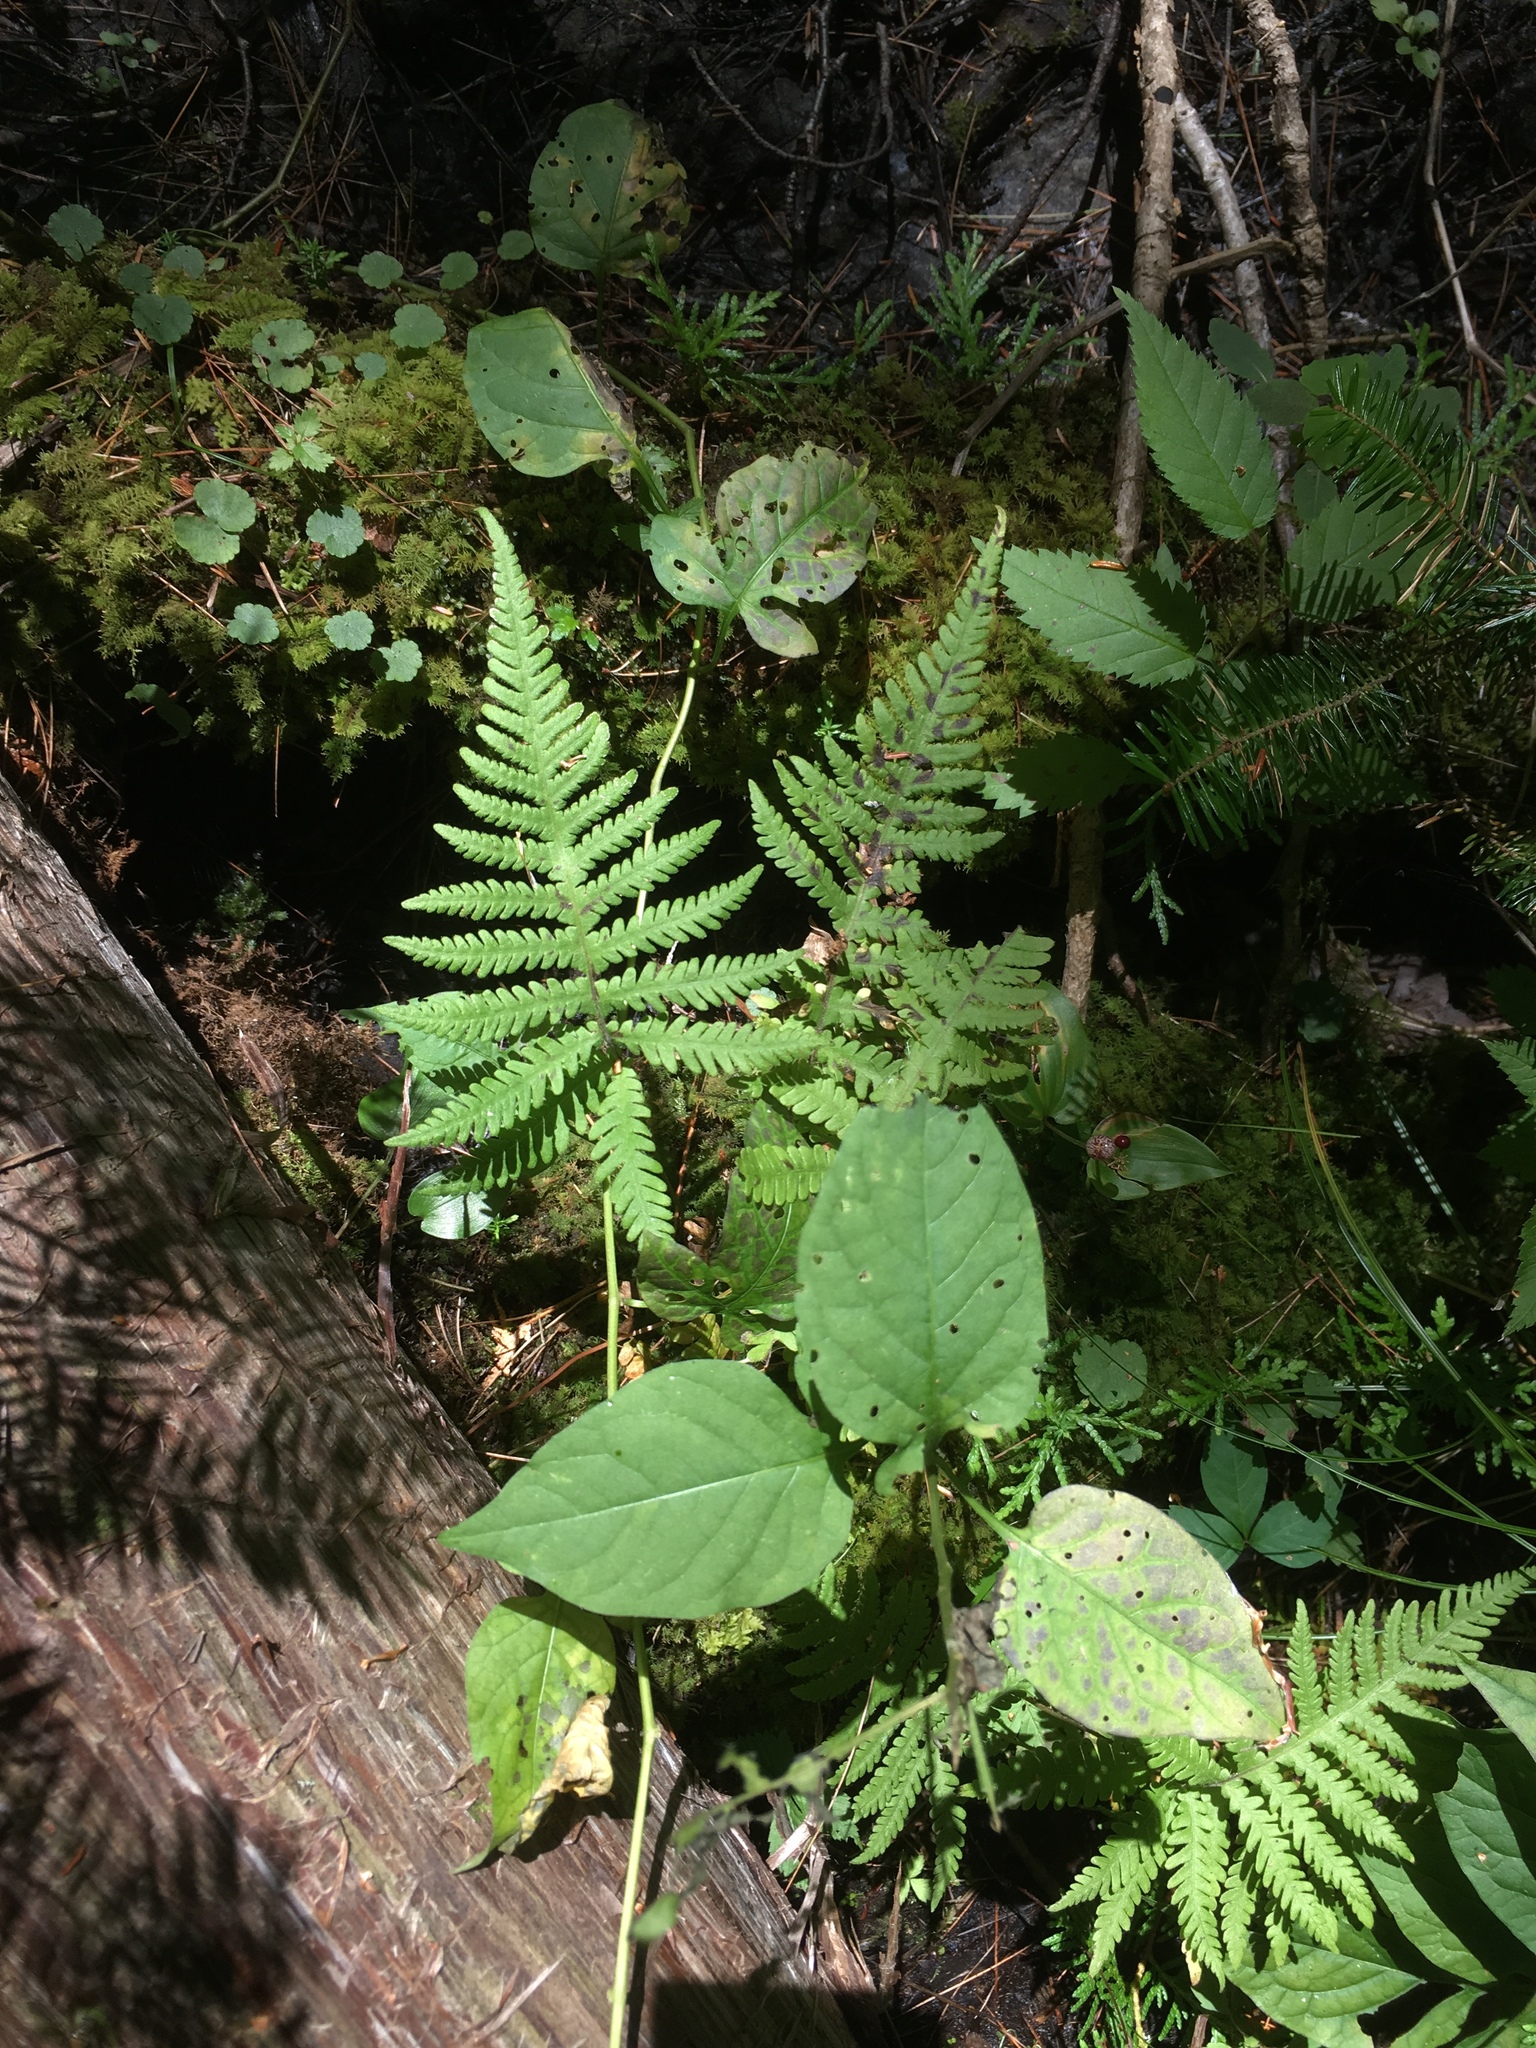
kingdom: Plantae
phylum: Tracheophyta
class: Polypodiopsida
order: Polypodiales
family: Thelypteridaceae
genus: Phegopteris
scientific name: Phegopteris connectilis
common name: Beech fern
